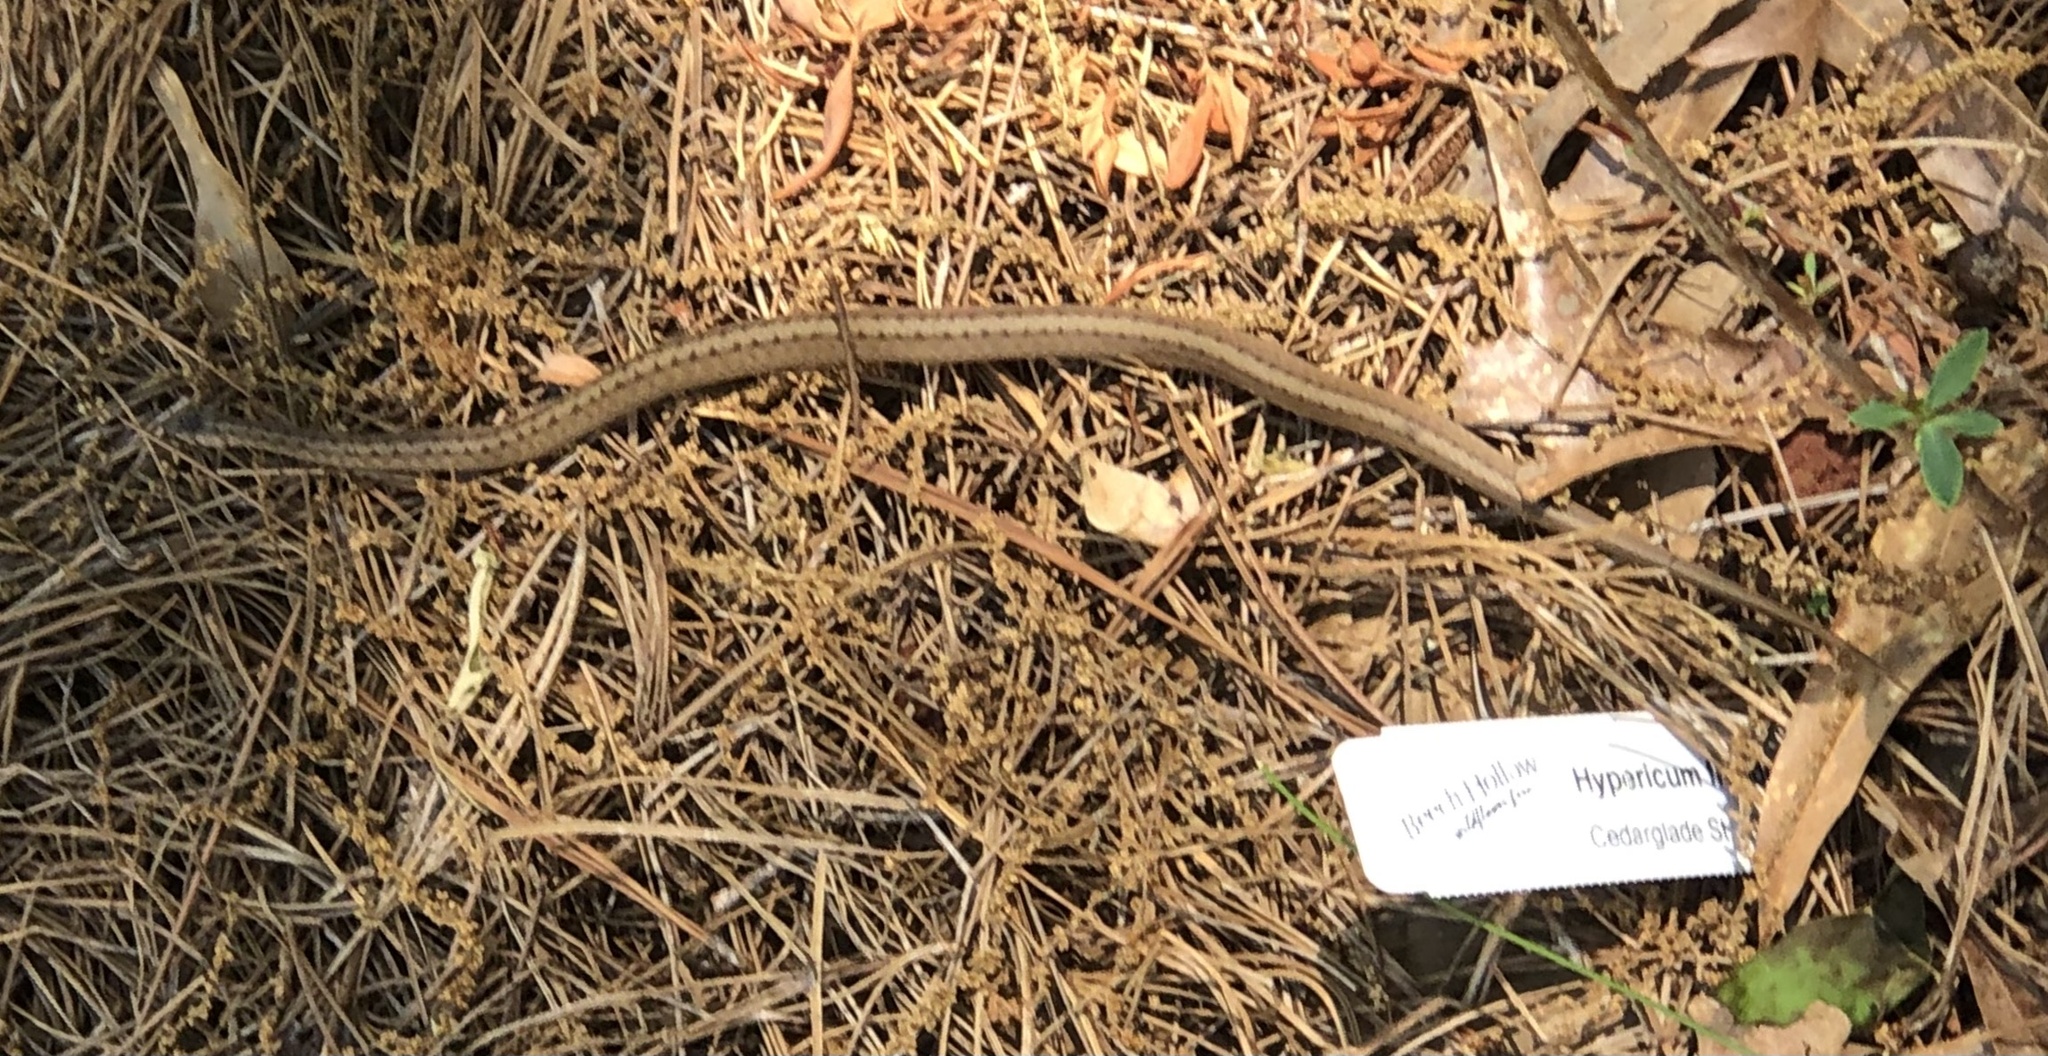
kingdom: Animalia
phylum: Chordata
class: Squamata
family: Colubridae
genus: Storeria
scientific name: Storeria dekayi
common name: (dekay’s) brown snake
